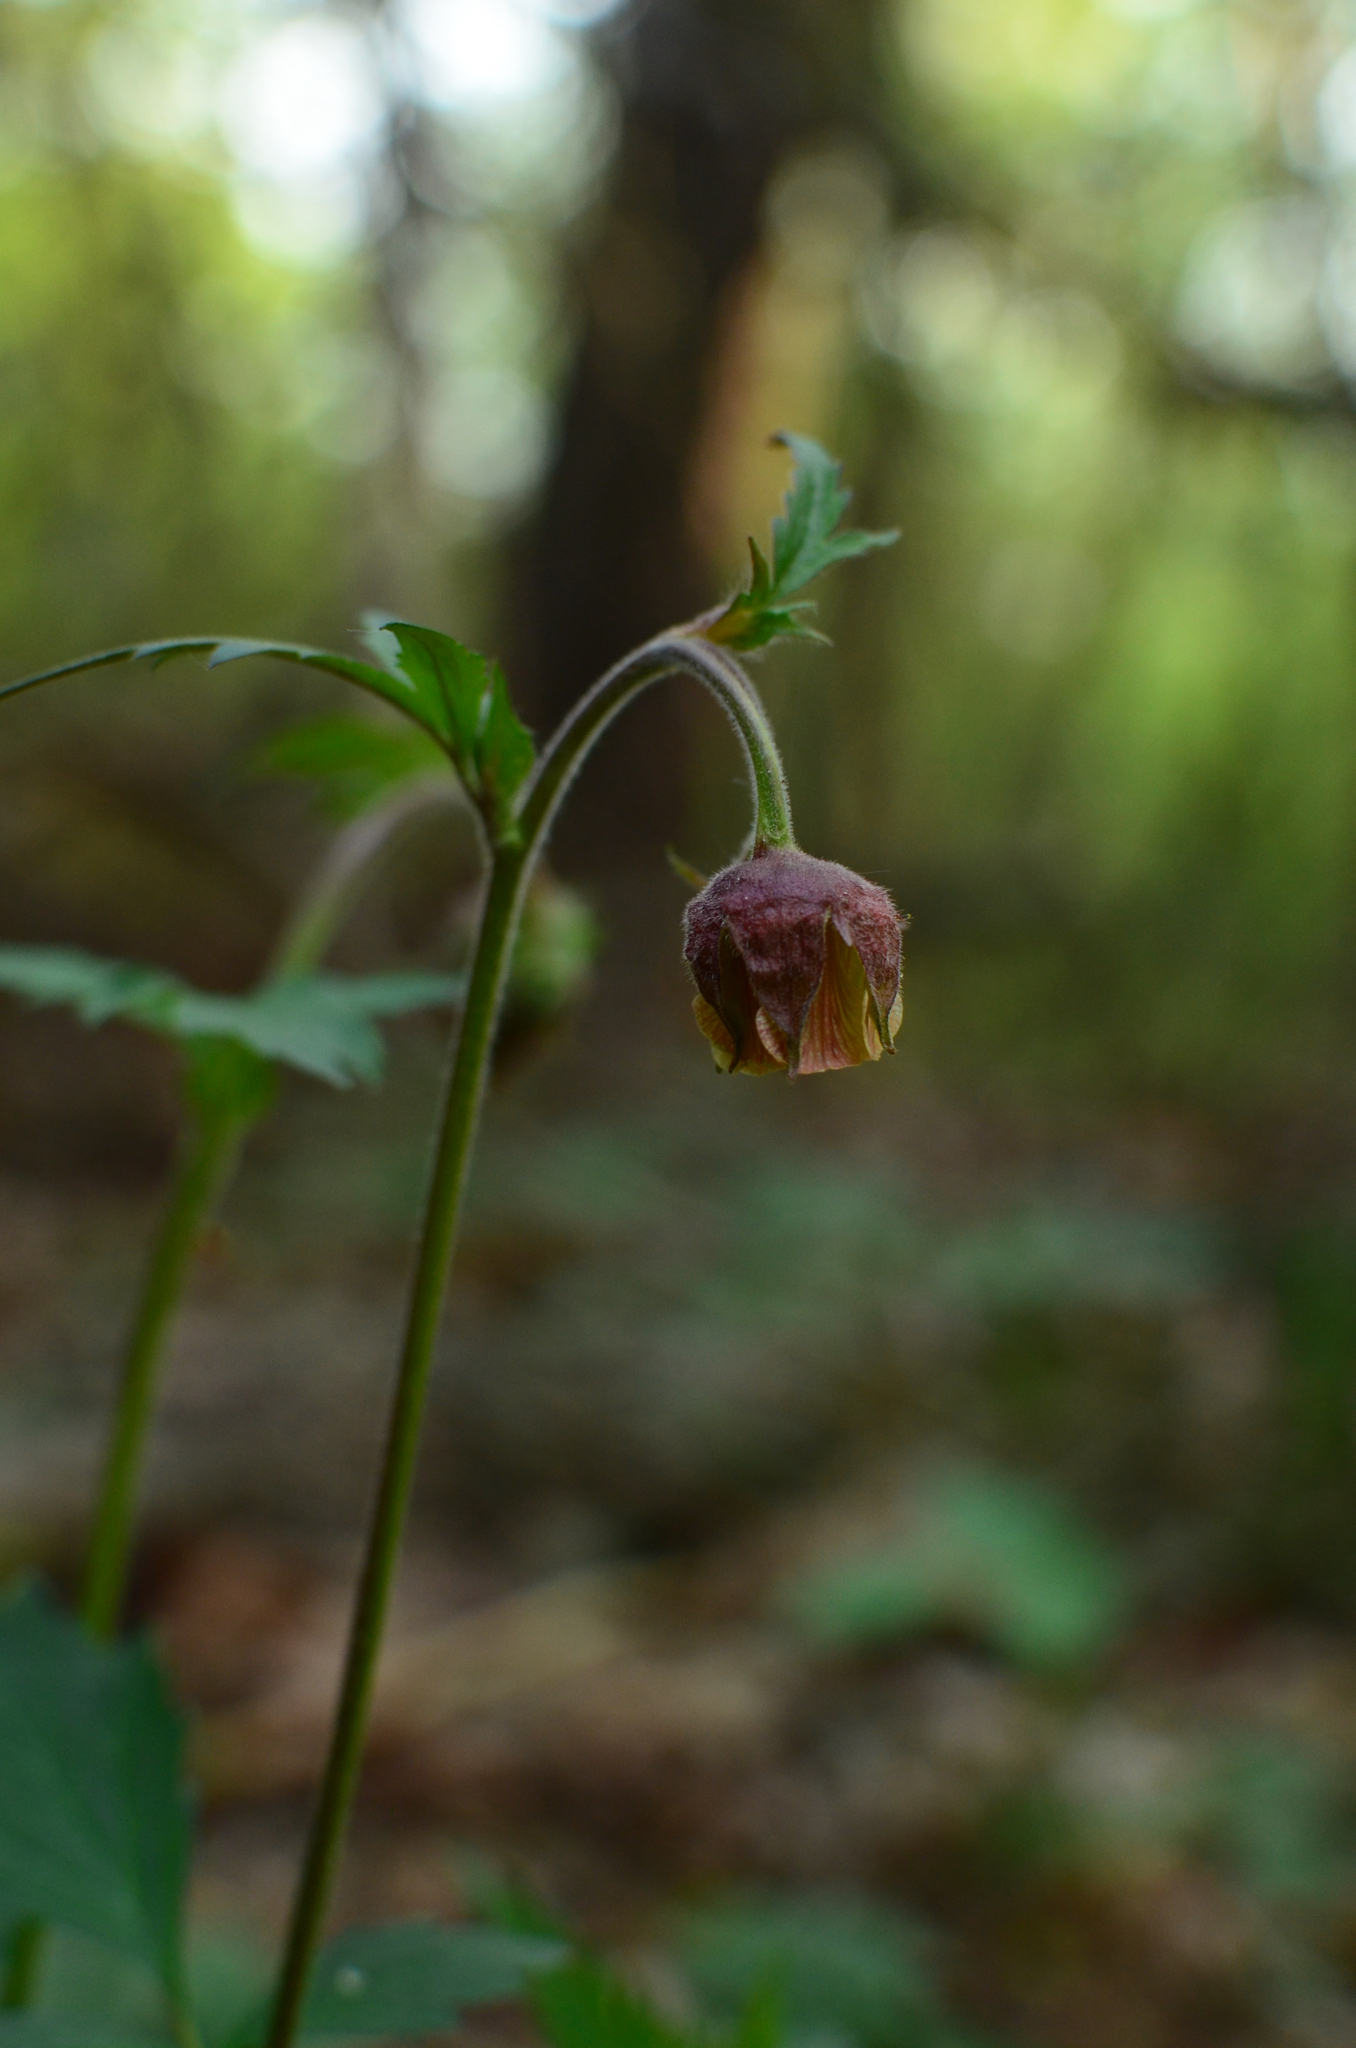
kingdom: Plantae
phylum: Tracheophyta
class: Magnoliopsida
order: Rosales
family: Rosaceae
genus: Geum
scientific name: Geum rivale
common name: Water avens
